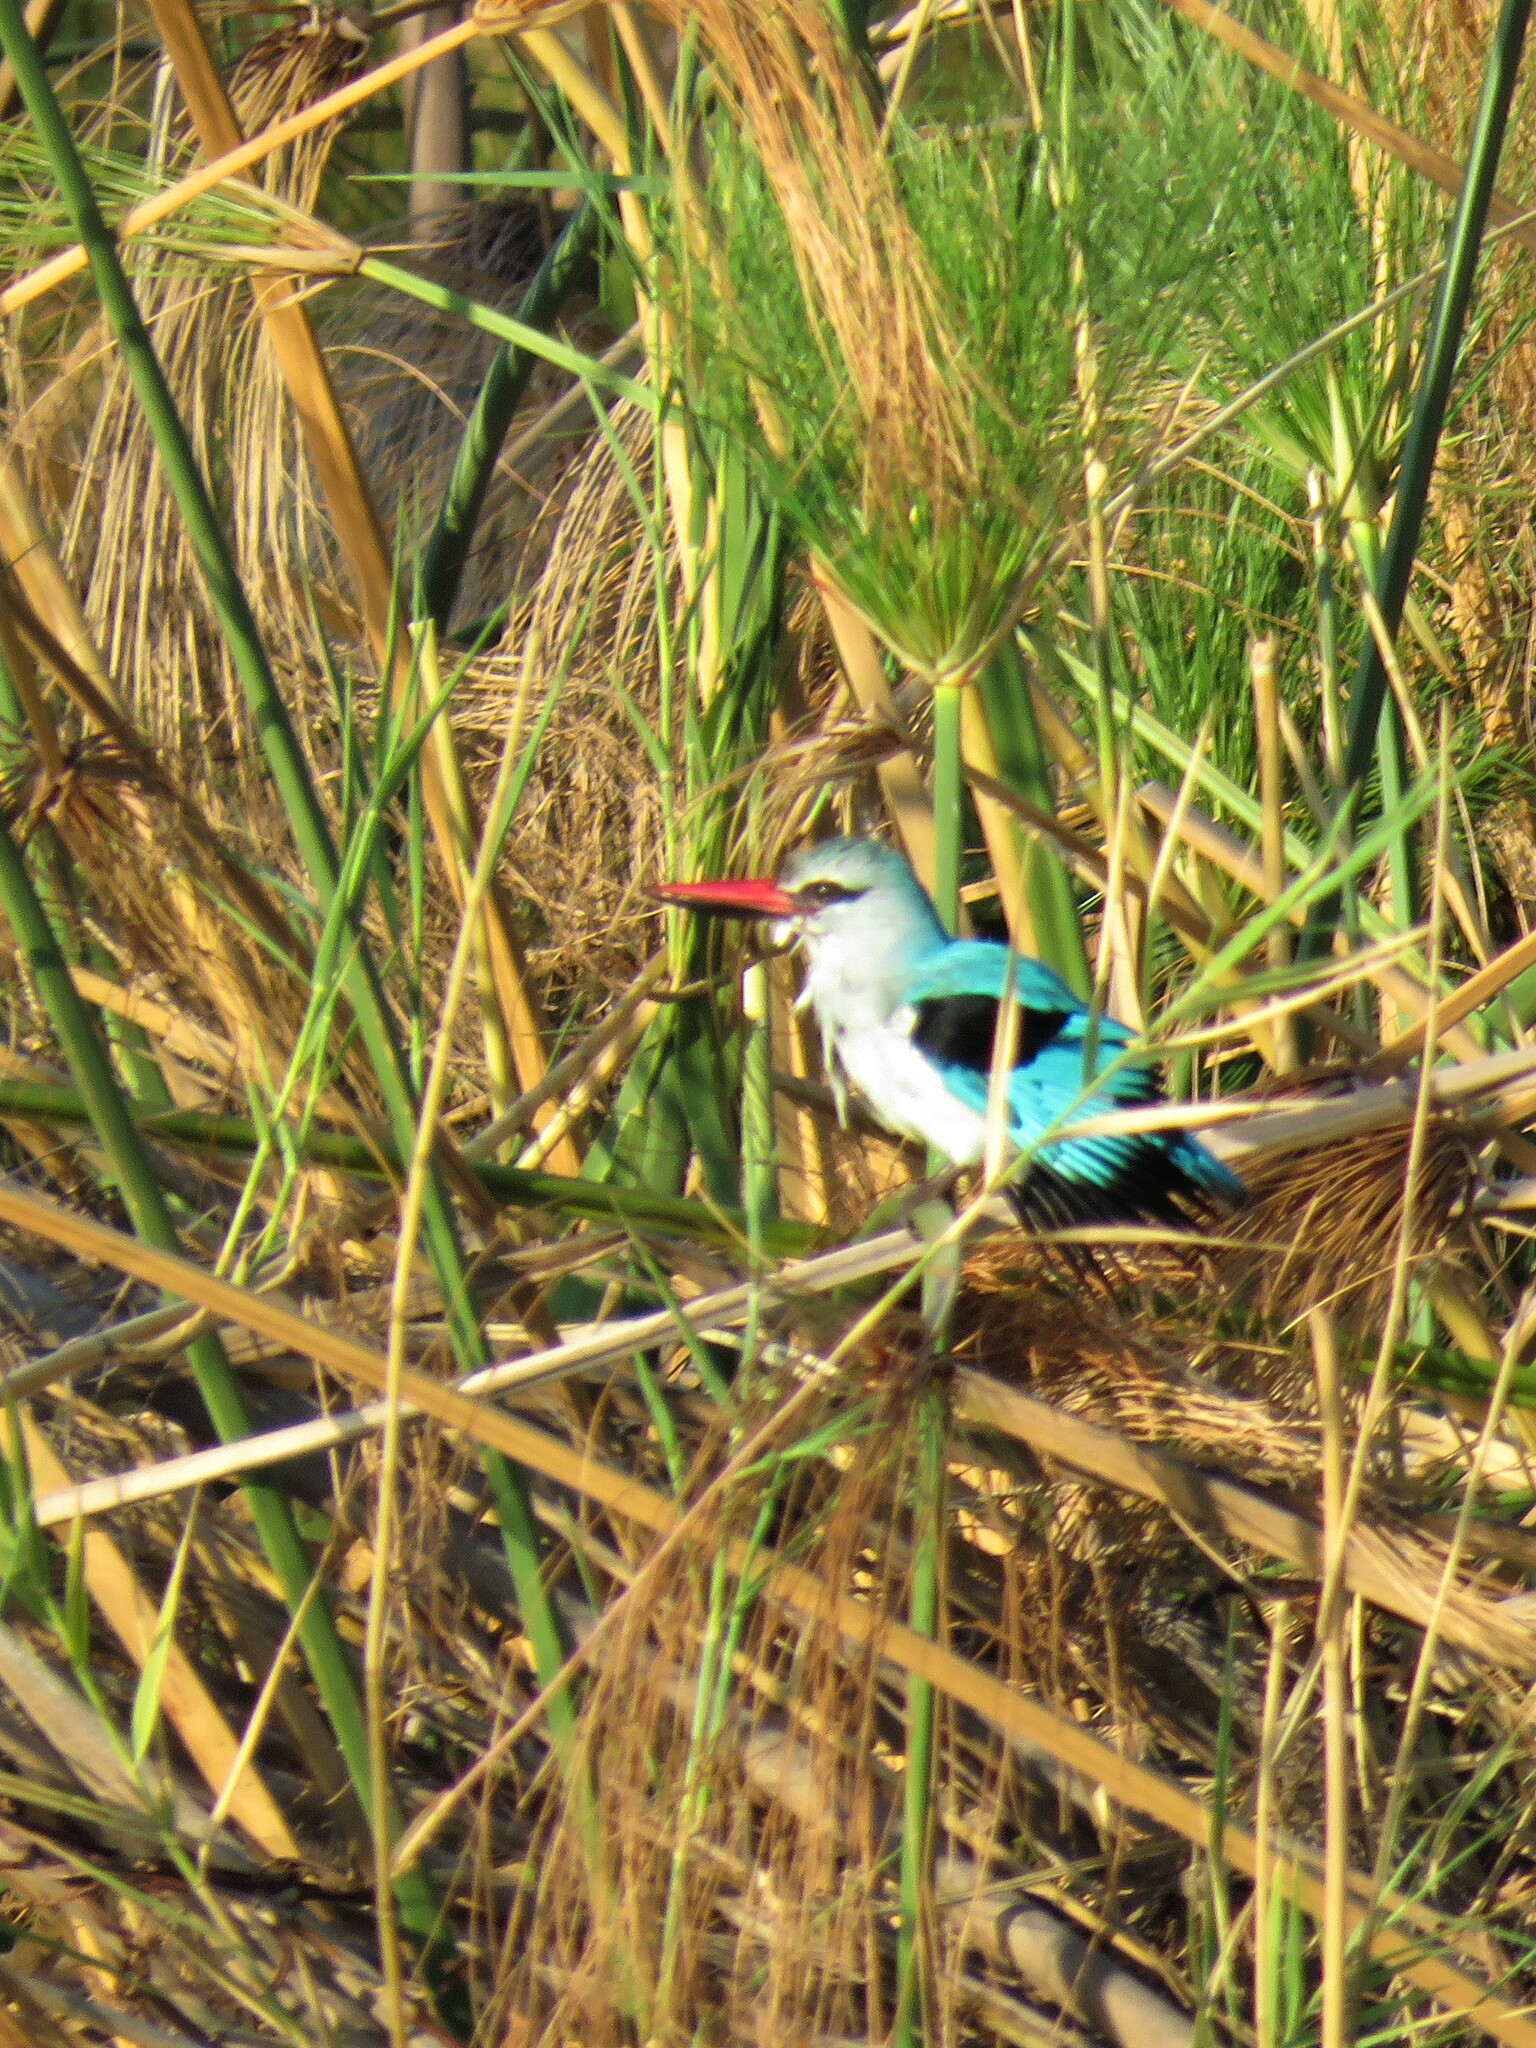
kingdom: Animalia
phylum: Chordata
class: Aves
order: Coraciiformes
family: Alcedinidae
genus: Halcyon
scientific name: Halcyon senegalensis
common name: Woodland kingfisher
